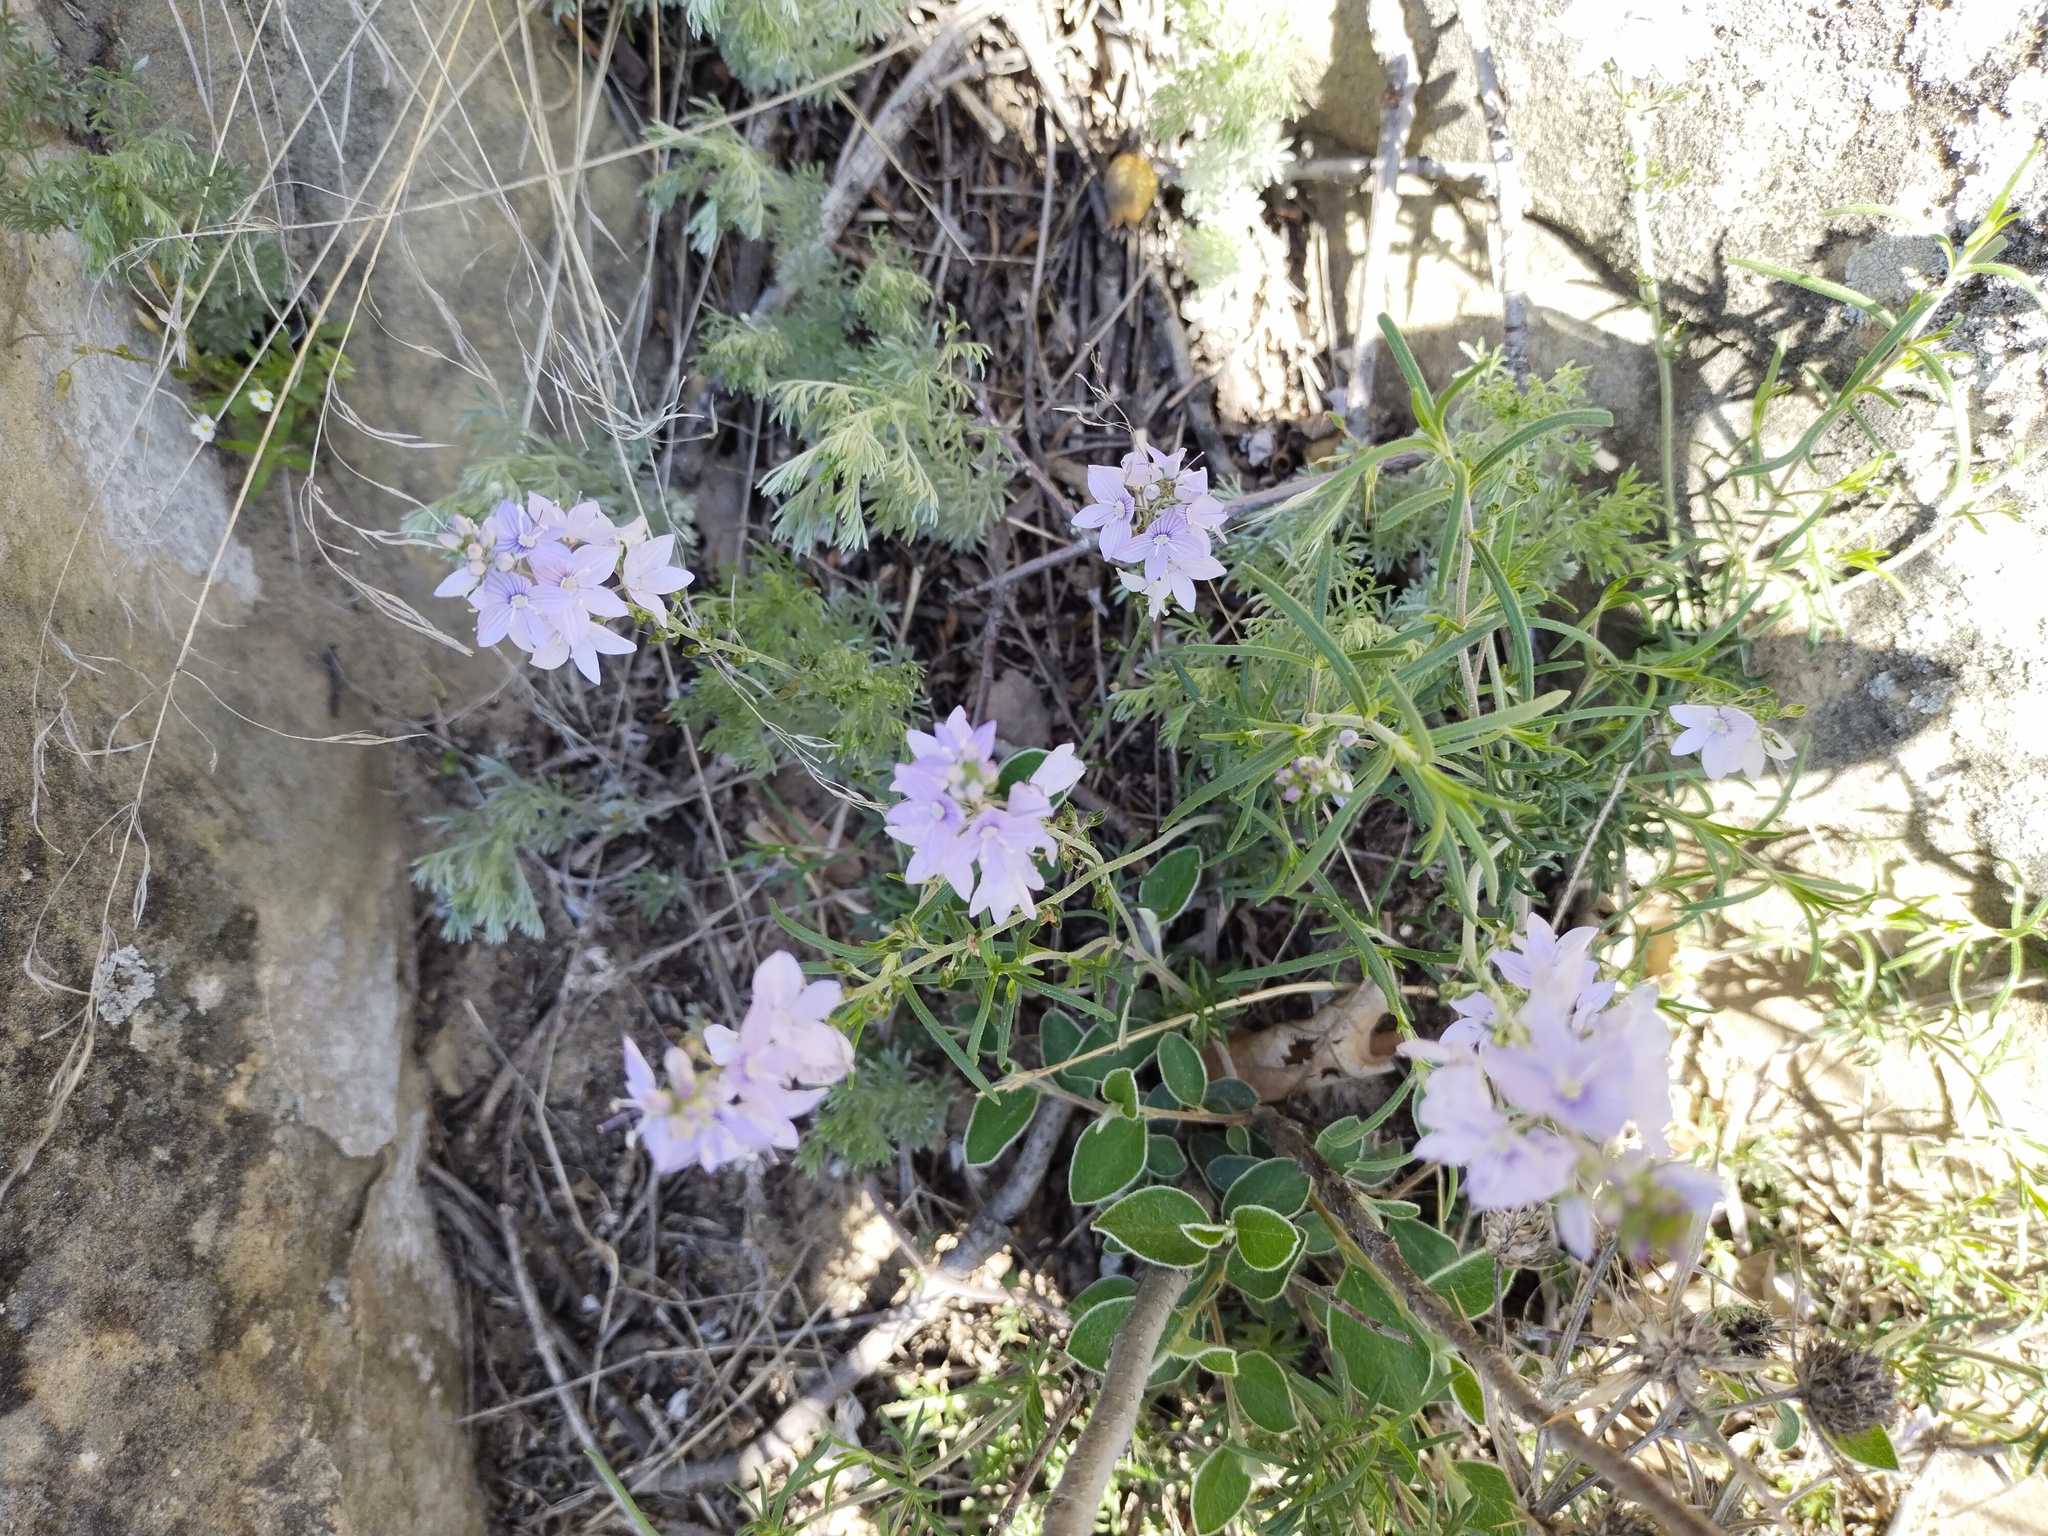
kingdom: Plantae
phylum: Tracheophyta
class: Magnoliopsida
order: Lamiales
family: Plantaginaceae
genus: Veronica
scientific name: Veronica multifida
